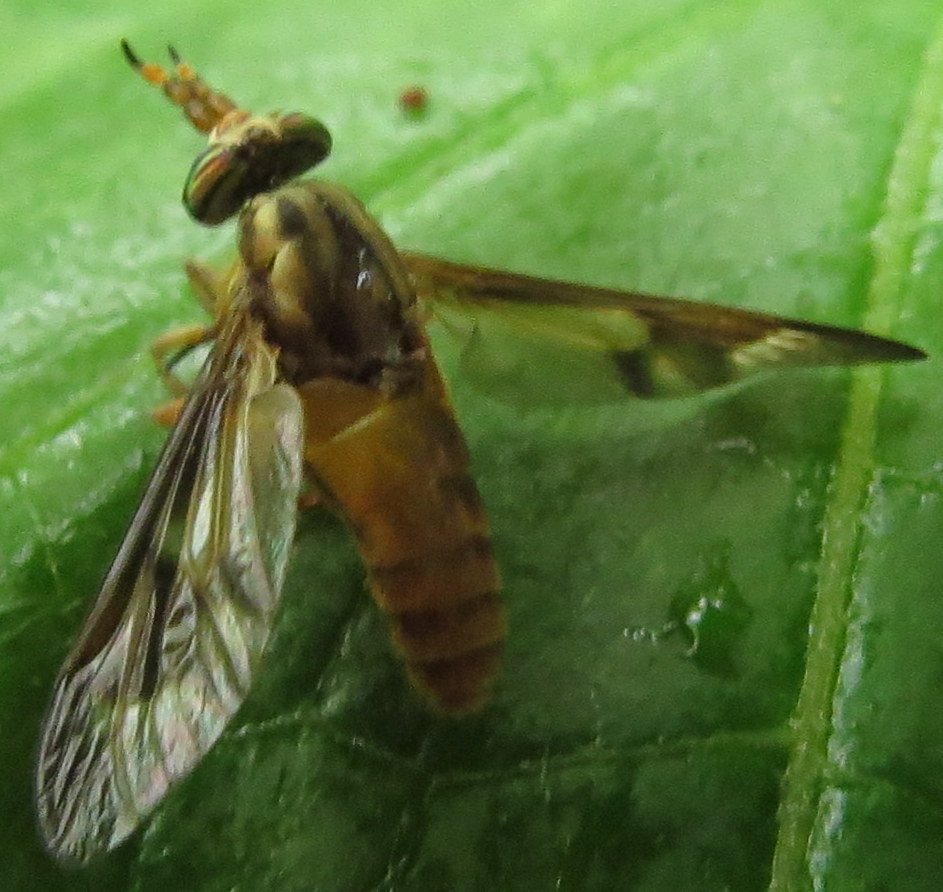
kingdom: Animalia
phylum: Arthropoda
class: Insecta
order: Diptera
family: Tabanidae
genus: Chrysops
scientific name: Chrysops brunneus
